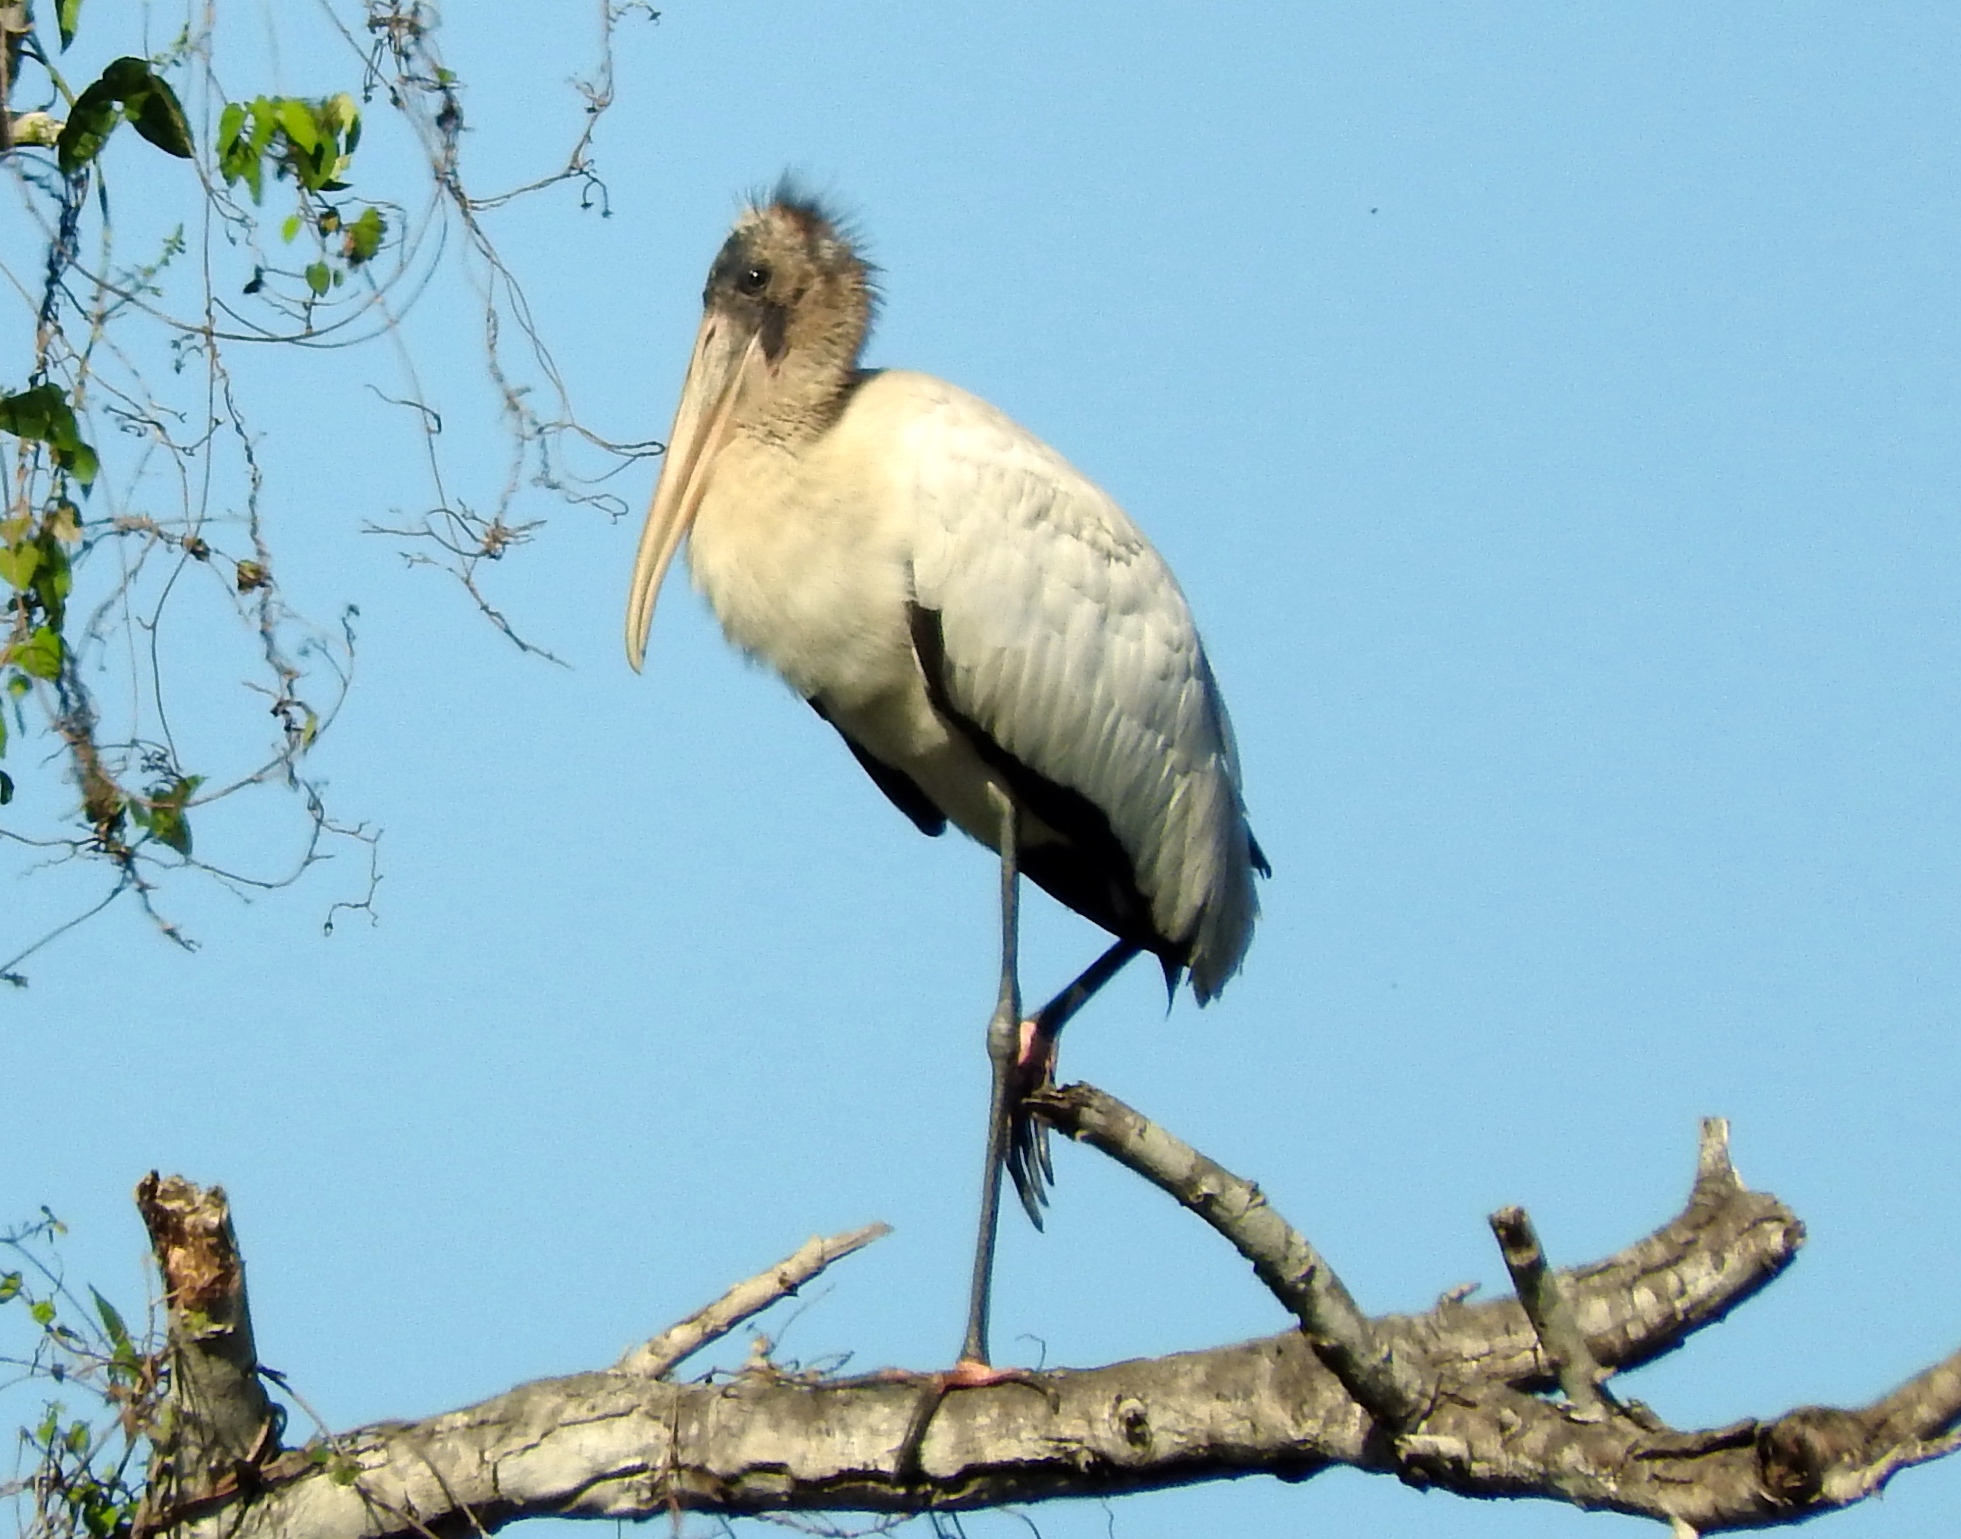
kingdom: Animalia
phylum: Chordata
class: Aves
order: Ciconiiformes
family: Ciconiidae
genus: Mycteria
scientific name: Mycteria americana
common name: Wood stork
